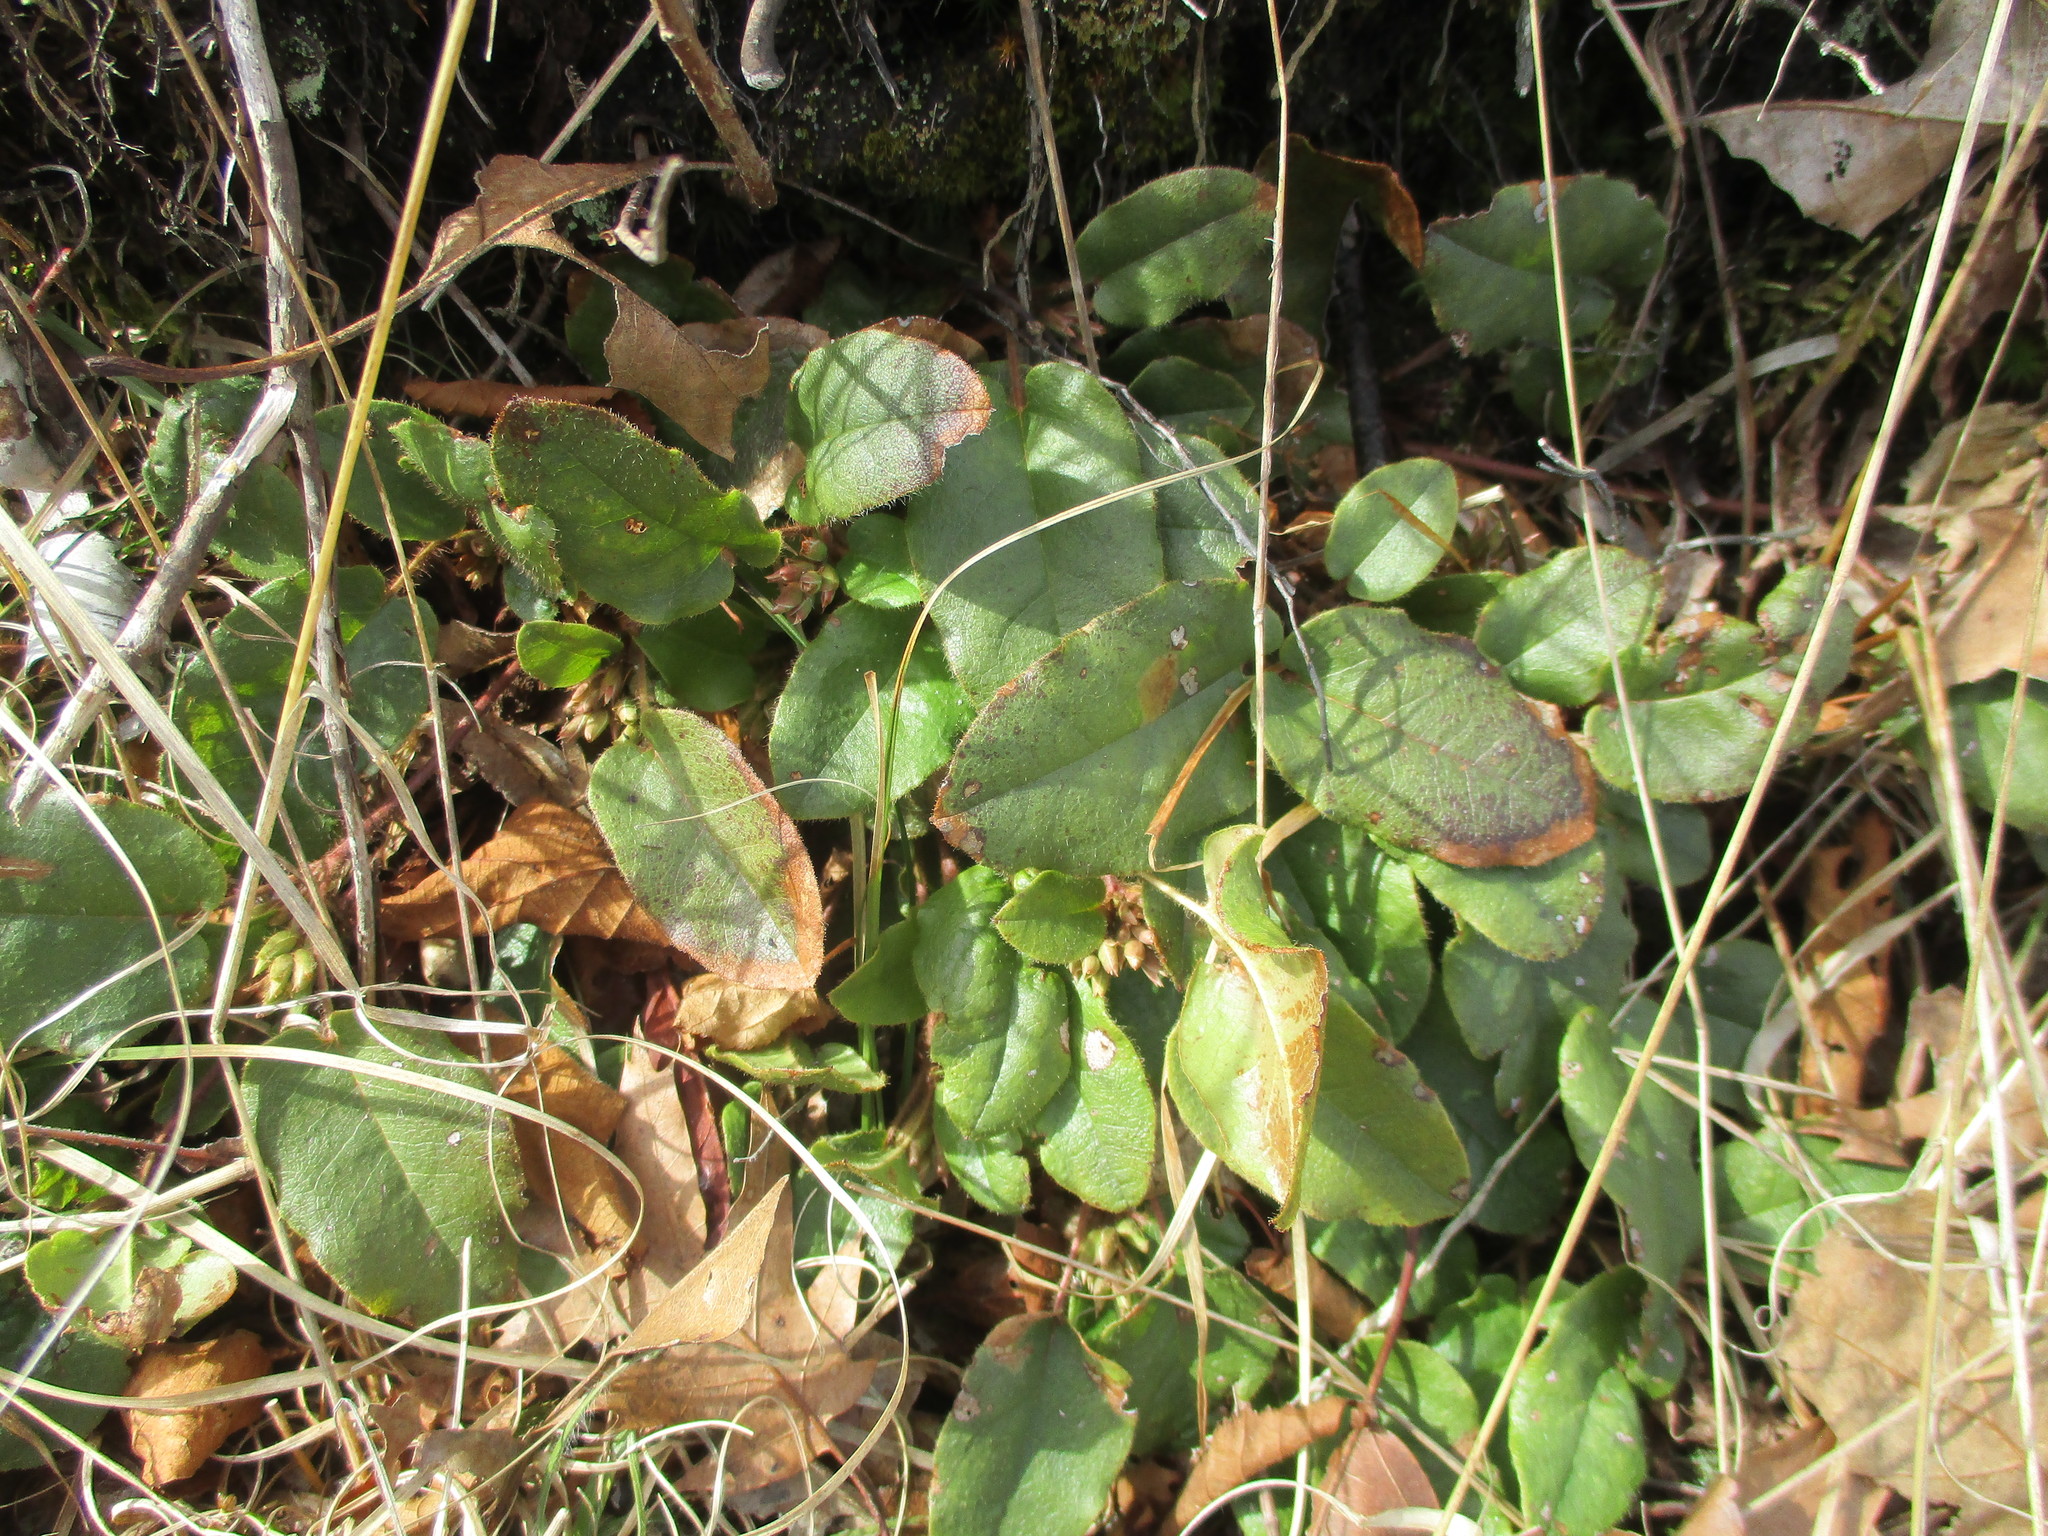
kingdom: Plantae
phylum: Tracheophyta
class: Magnoliopsida
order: Ericales
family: Ericaceae
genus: Epigaea
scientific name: Epigaea repens
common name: Gravelroot
